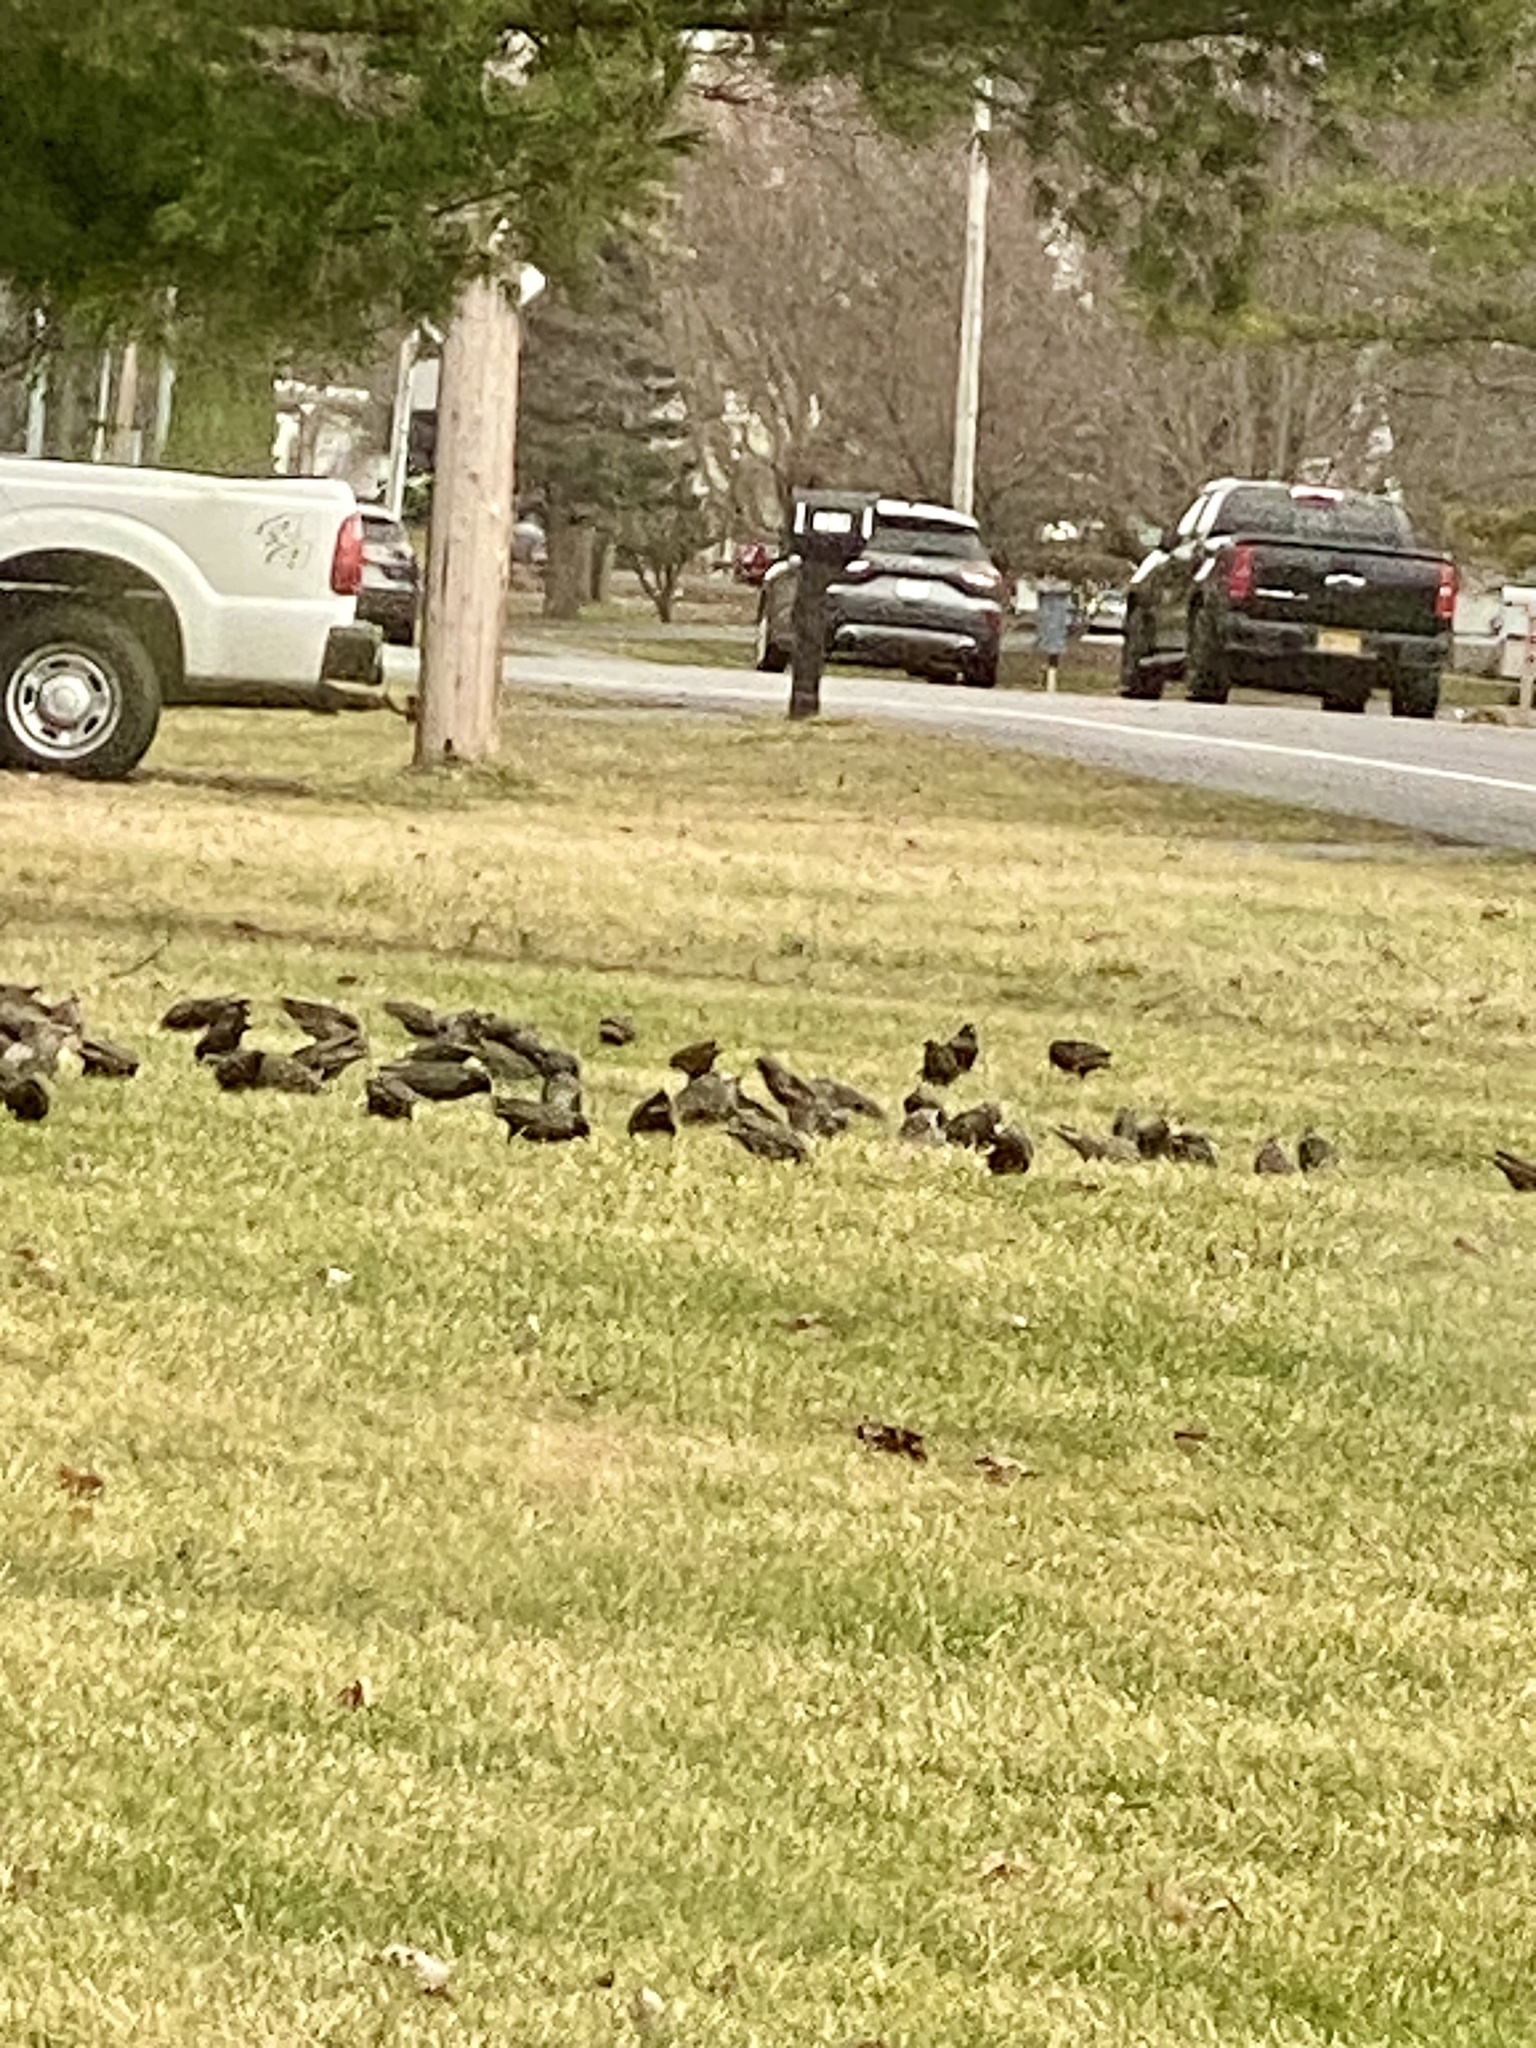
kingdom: Animalia
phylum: Chordata
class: Aves
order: Passeriformes
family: Sturnidae
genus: Sturnus
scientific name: Sturnus vulgaris
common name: Common starling
